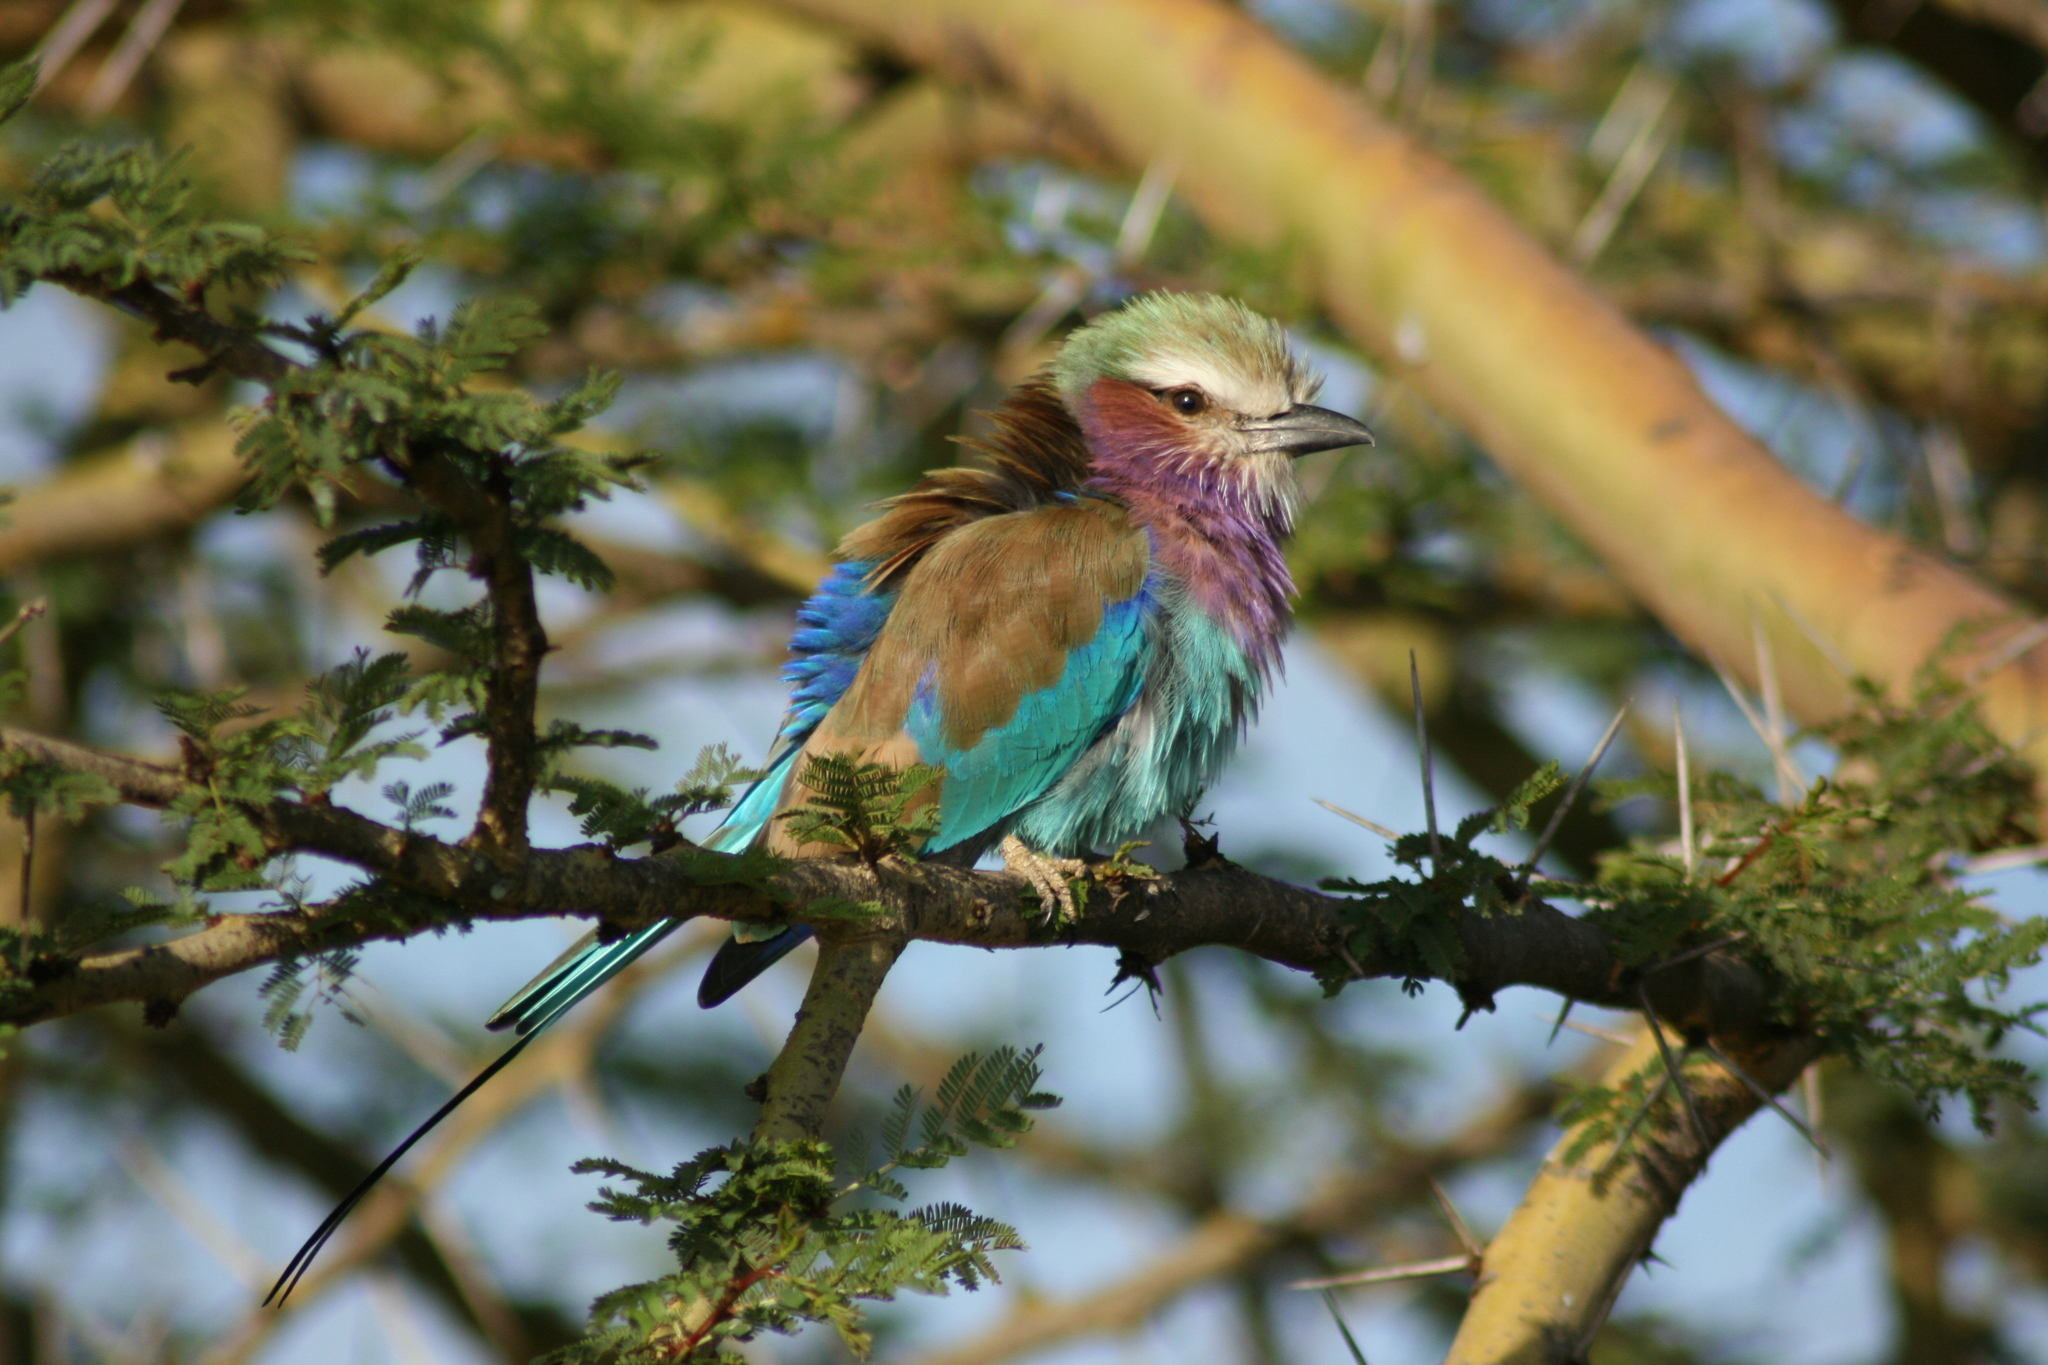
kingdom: Animalia
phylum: Chordata
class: Aves
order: Coraciiformes
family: Coraciidae
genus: Coracias
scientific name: Coracias caudatus
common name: Lilac-breasted roller
